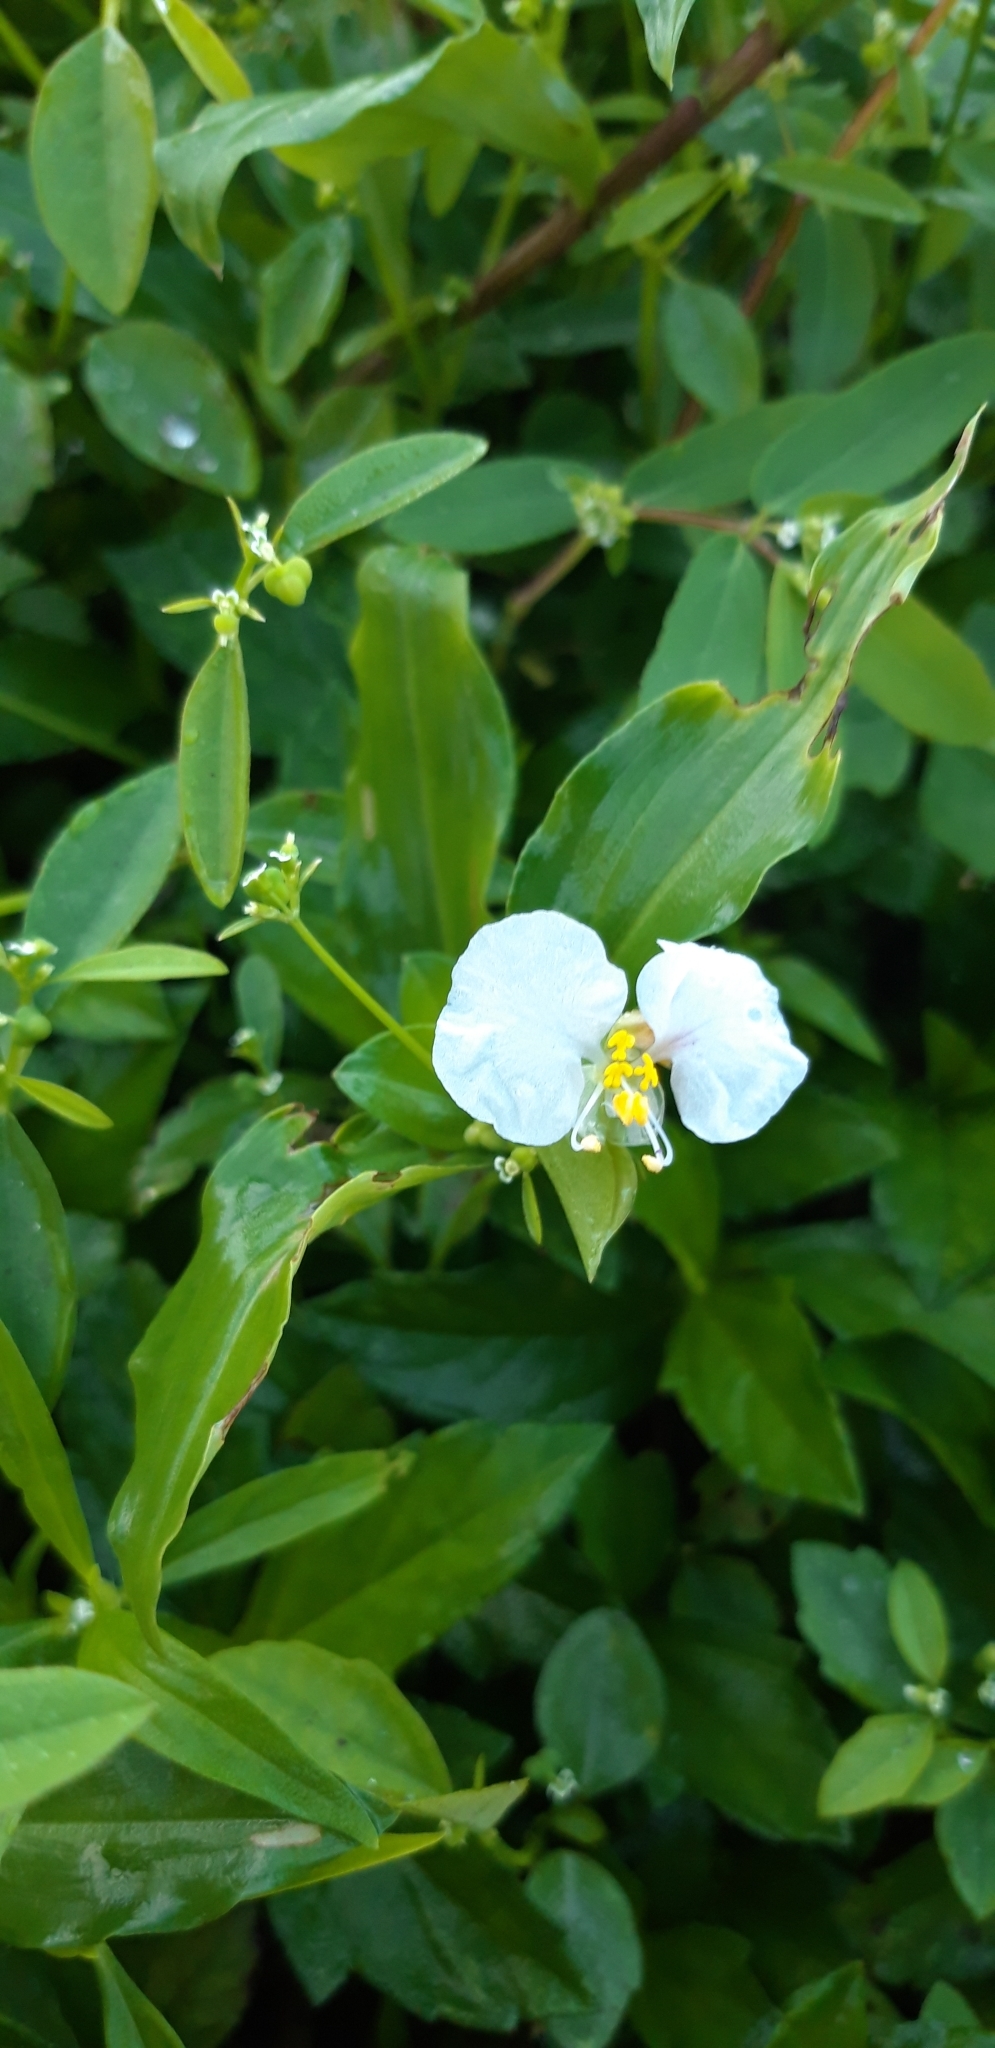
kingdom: Plantae
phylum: Tracheophyta
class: Liliopsida
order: Commelinales
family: Commelinaceae
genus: Commelina
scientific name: Commelina erecta
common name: Blousel blommetjie
